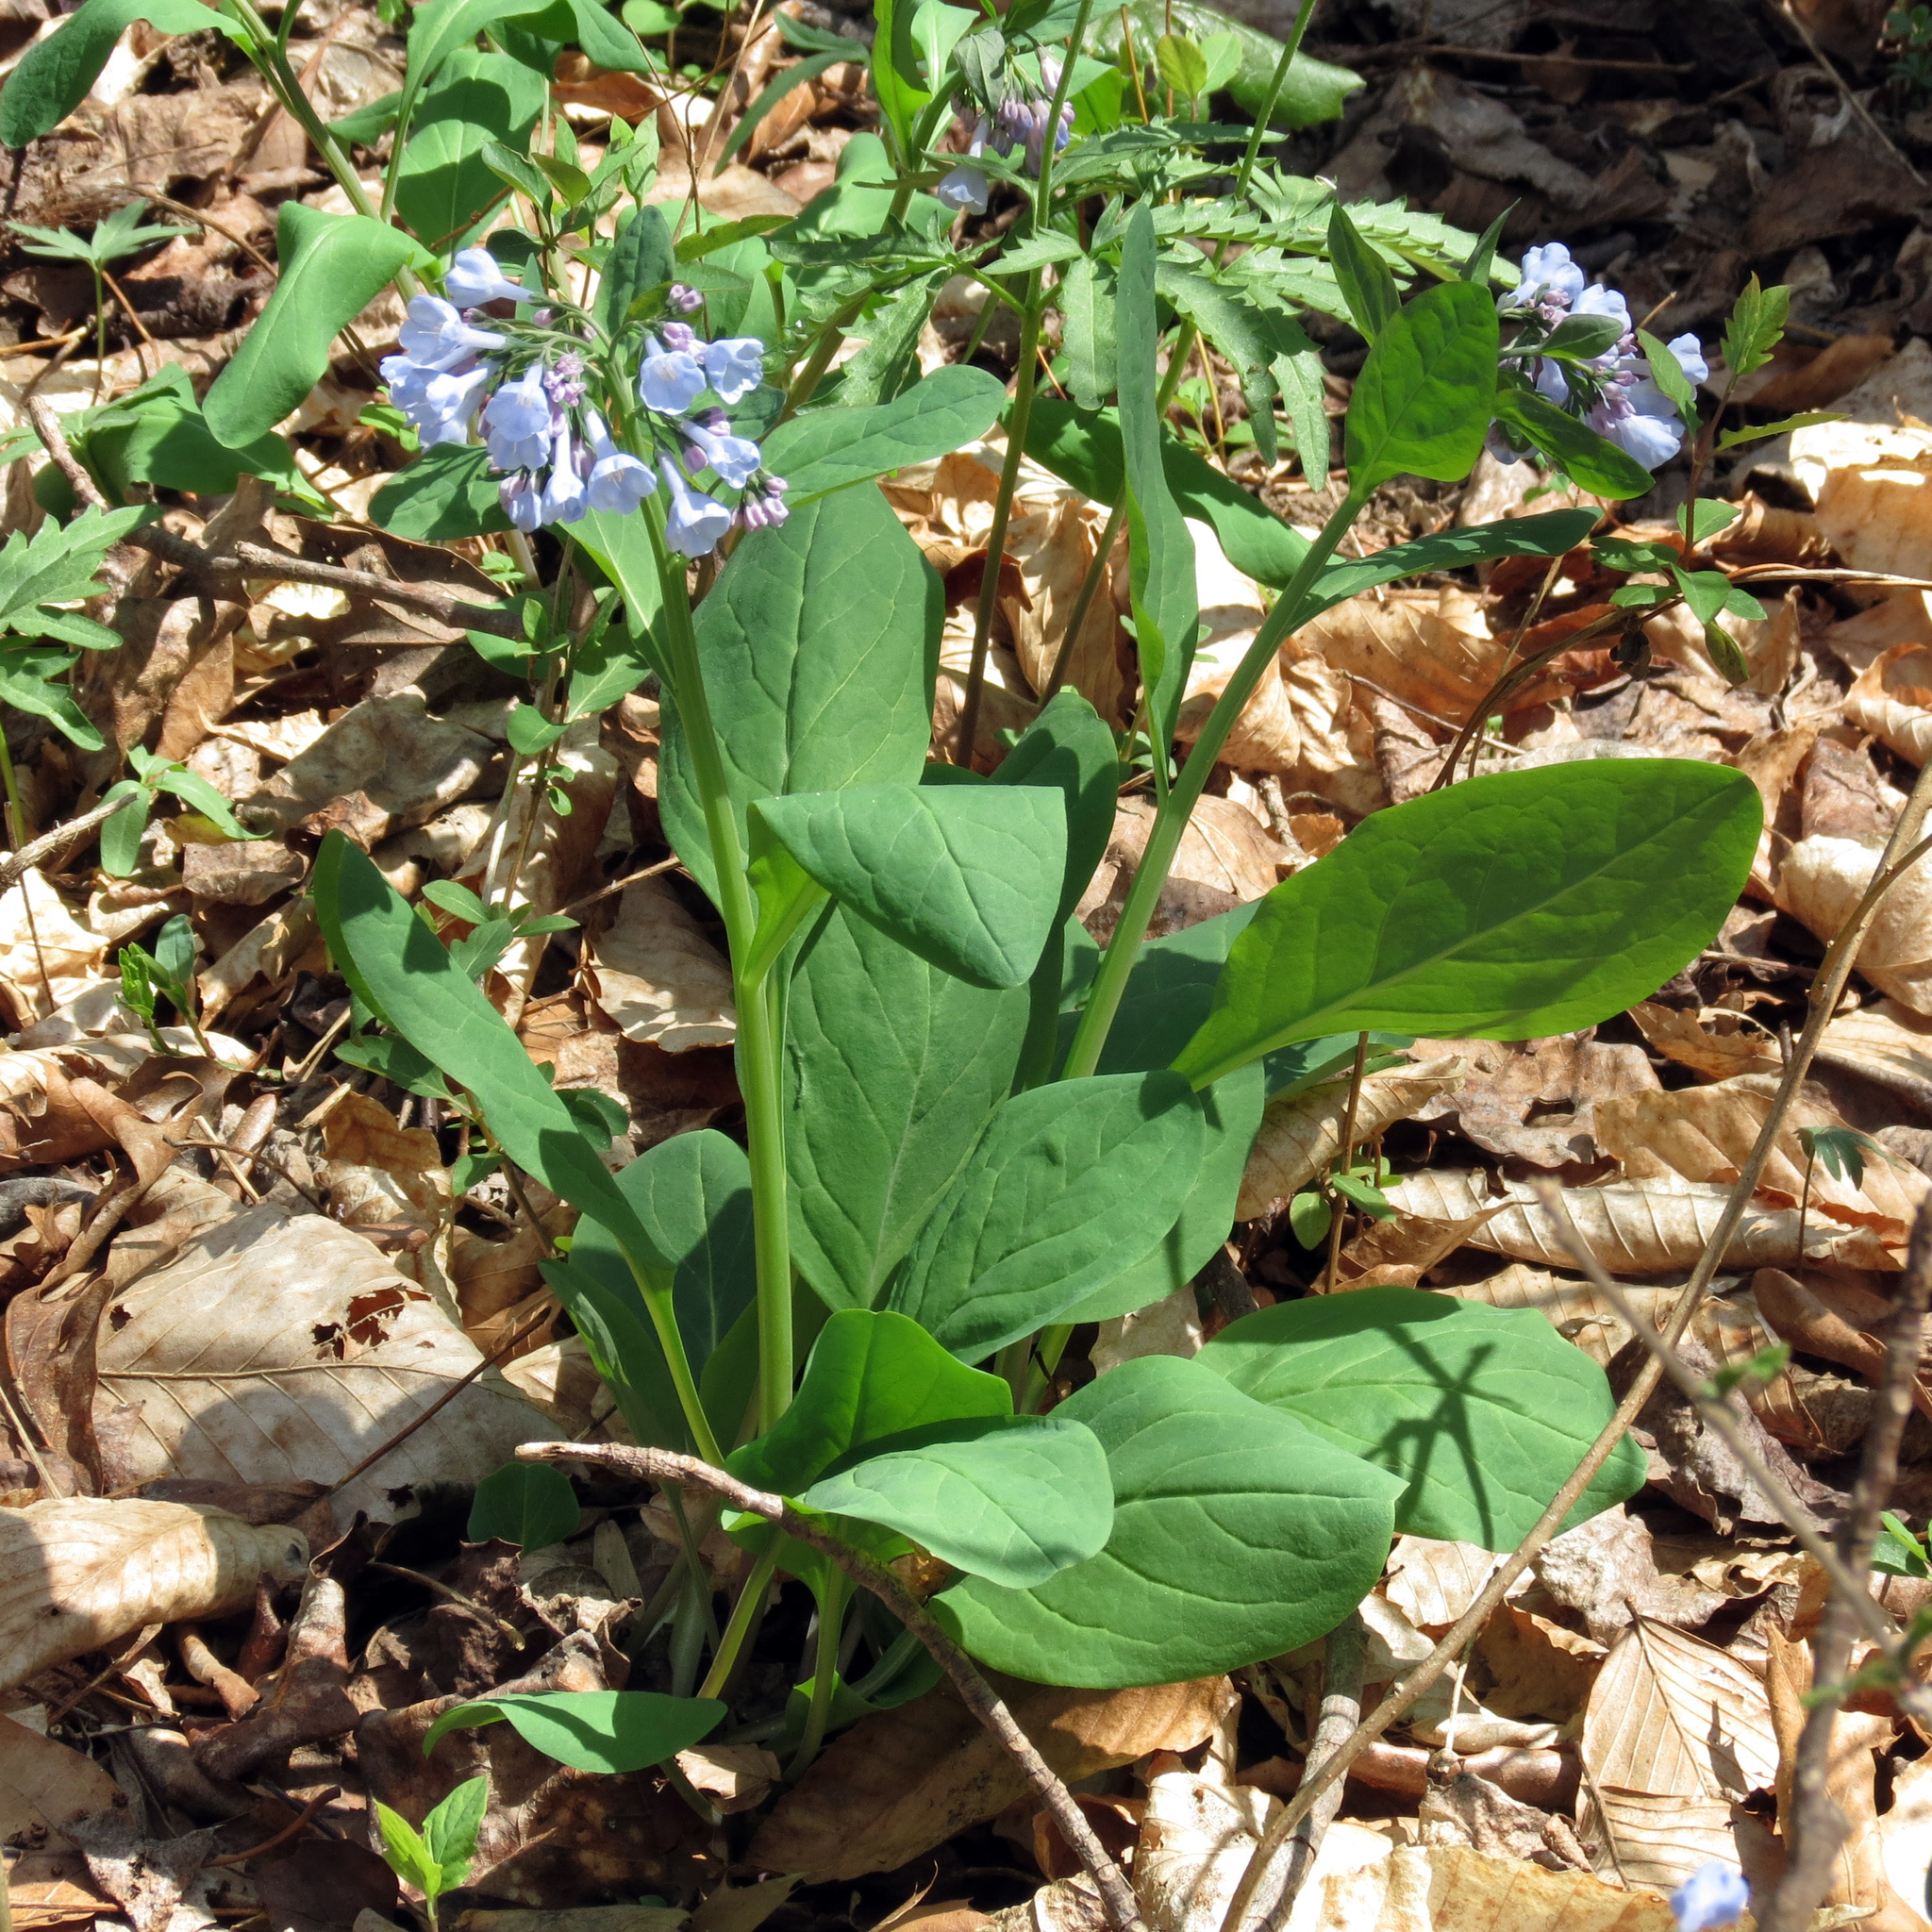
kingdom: Plantae
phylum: Tracheophyta
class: Magnoliopsida
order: Boraginales
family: Boraginaceae
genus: Mertensia
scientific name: Mertensia virginica
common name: Virginia bluebells
